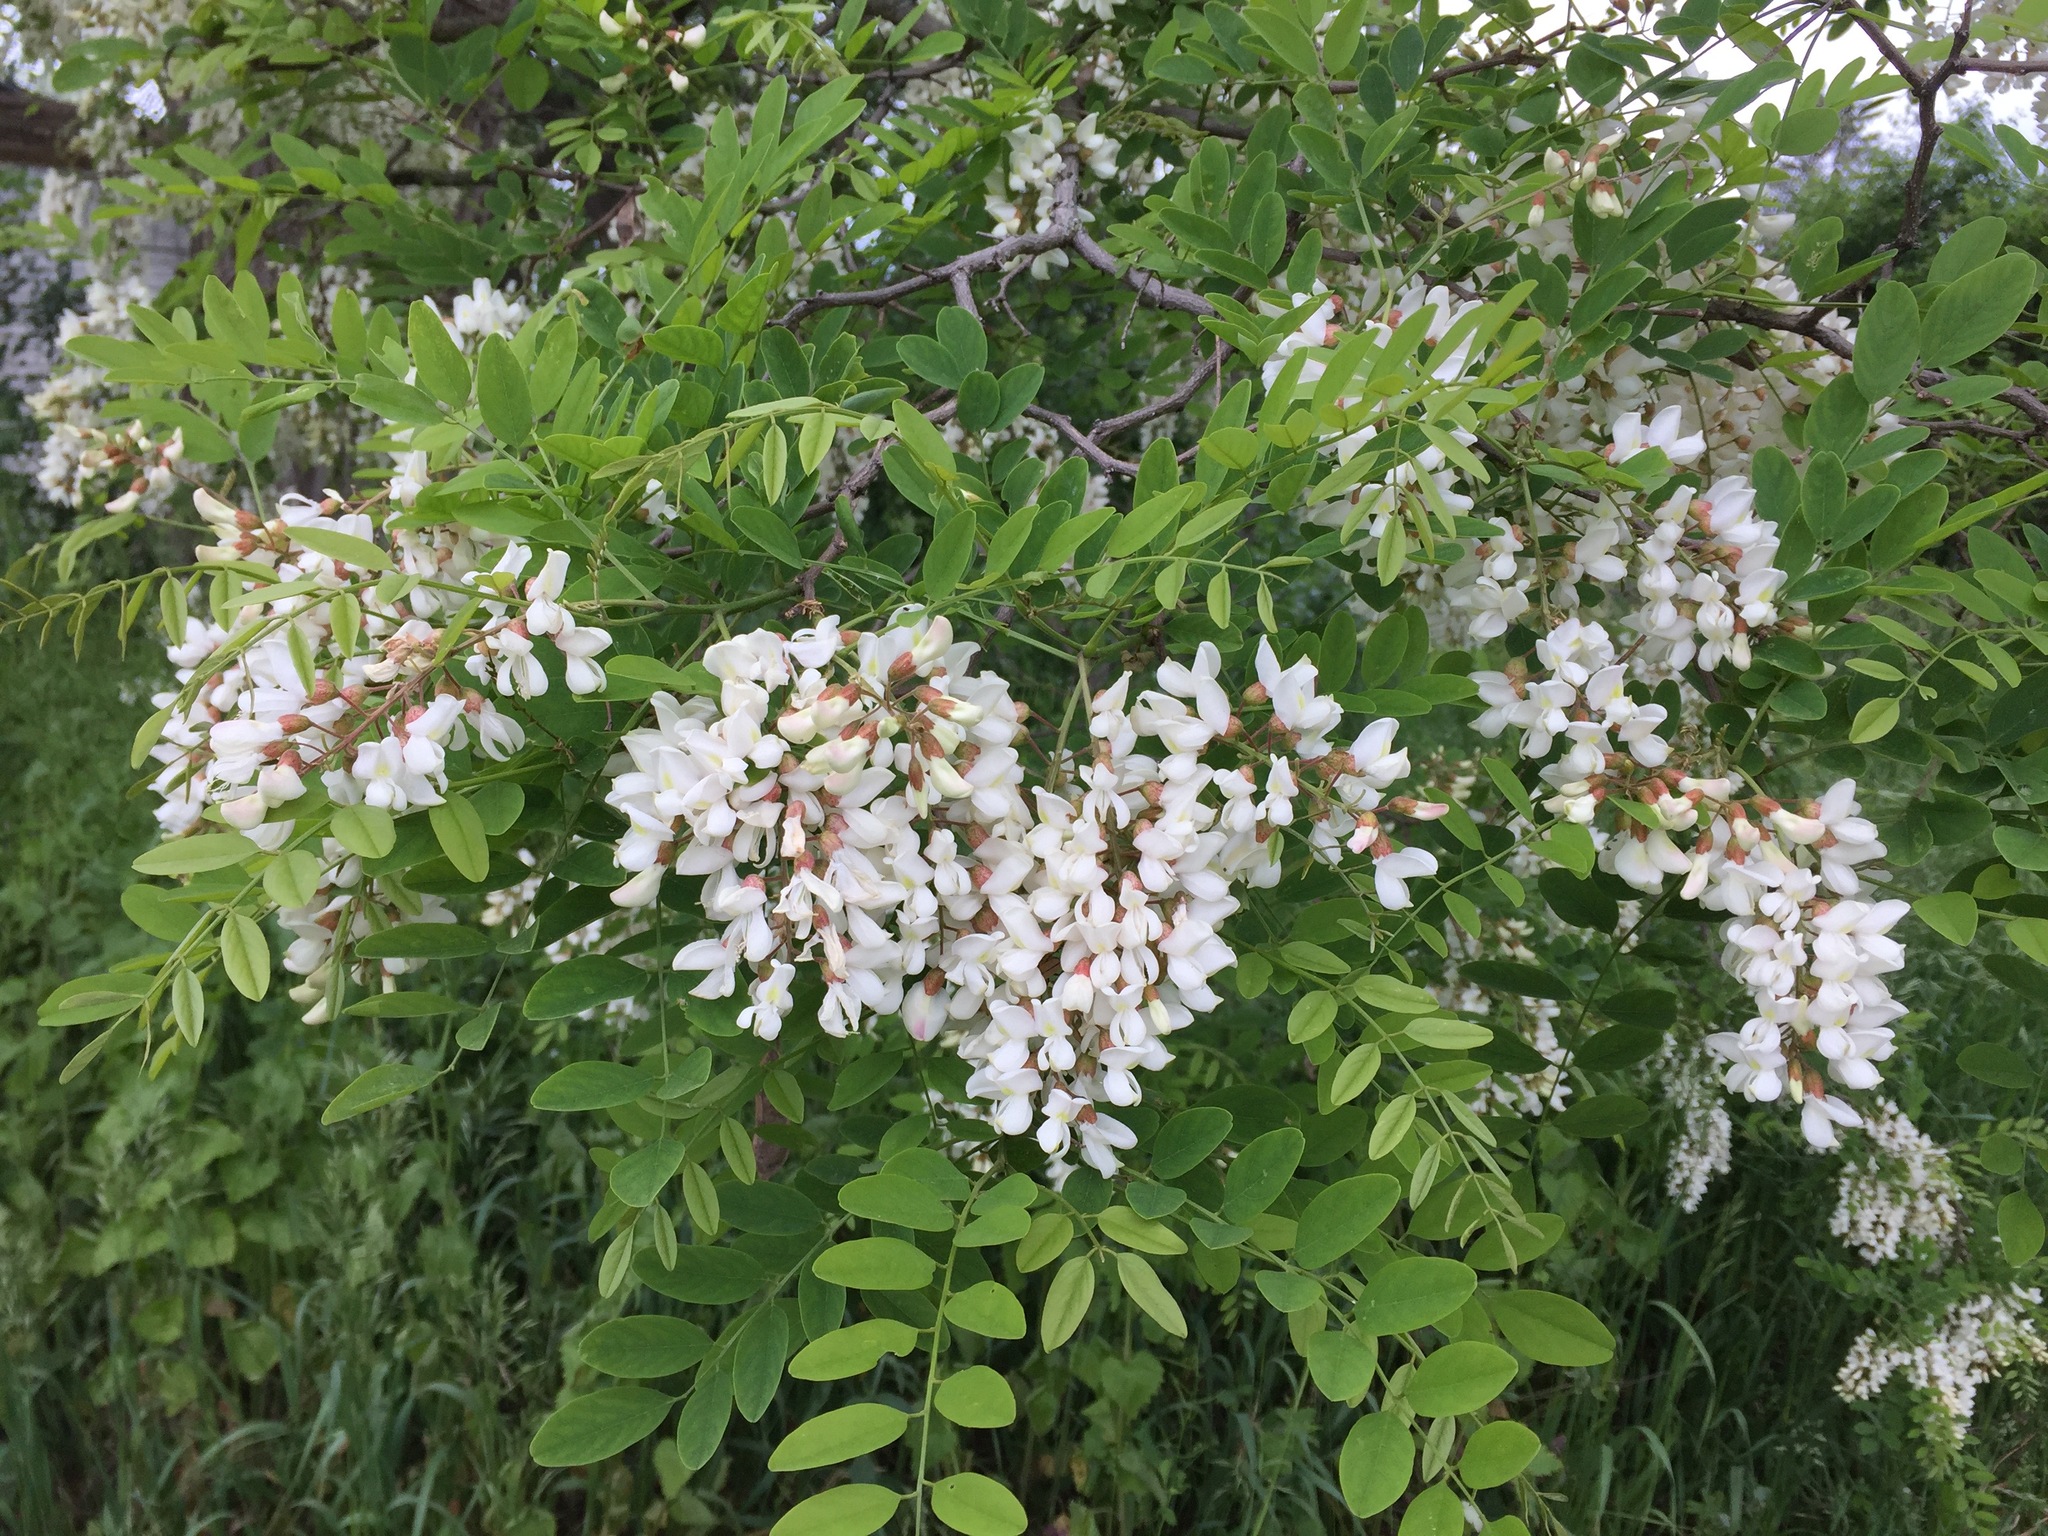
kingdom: Plantae
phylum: Tracheophyta
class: Magnoliopsida
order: Fabales
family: Fabaceae
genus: Robinia
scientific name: Robinia pseudoacacia
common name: Black locust
